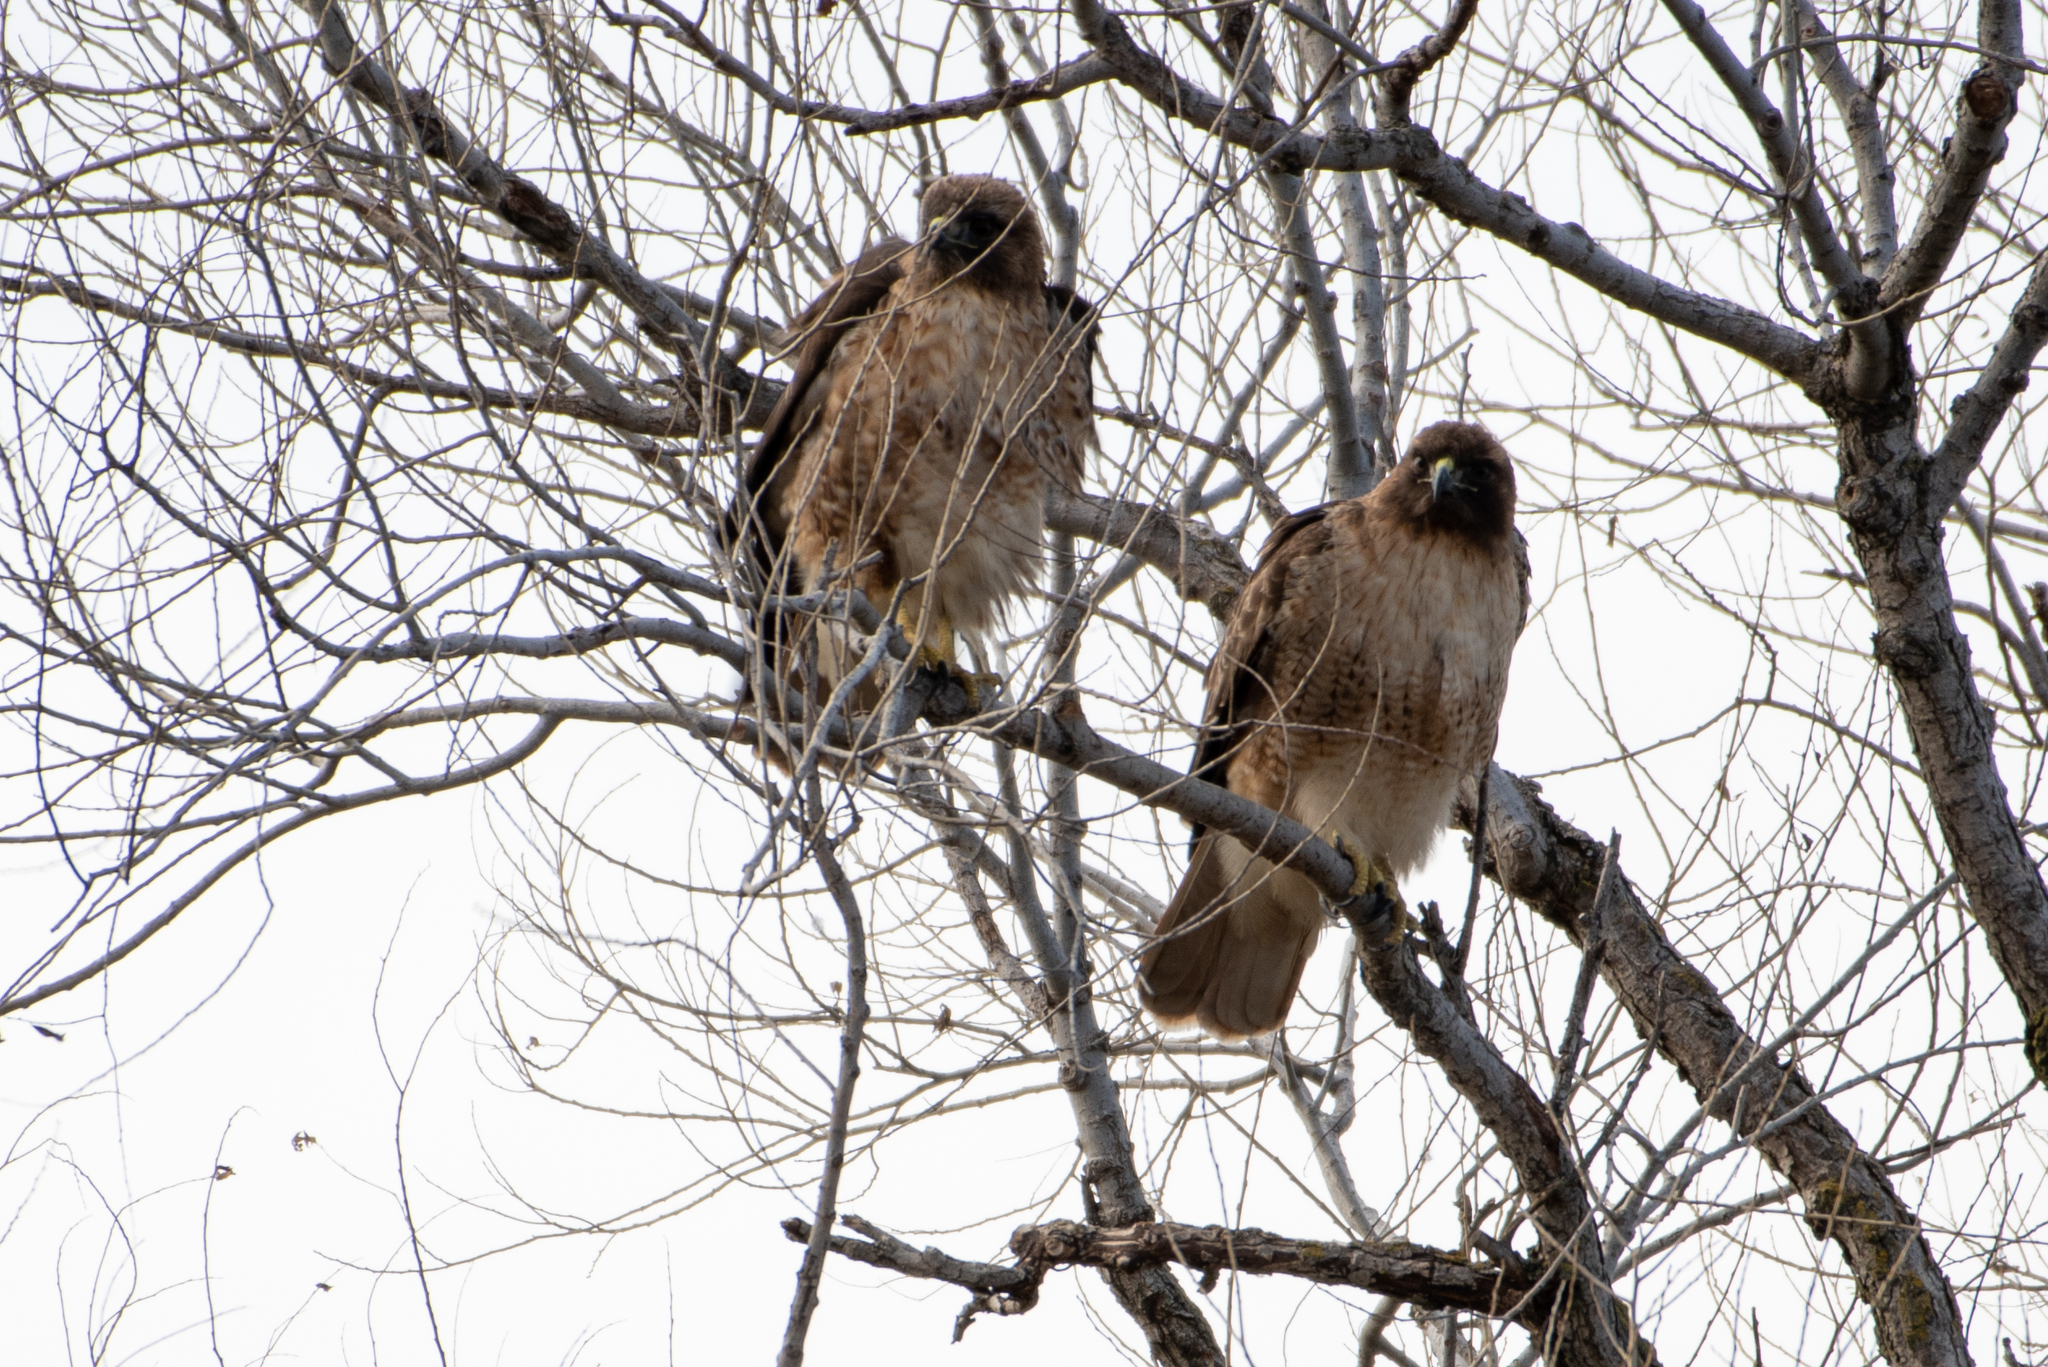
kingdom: Animalia
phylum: Chordata
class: Aves
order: Accipitriformes
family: Accipitridae
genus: Buteo
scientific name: Buteo jamaicensis
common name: Red-tailed hawk
